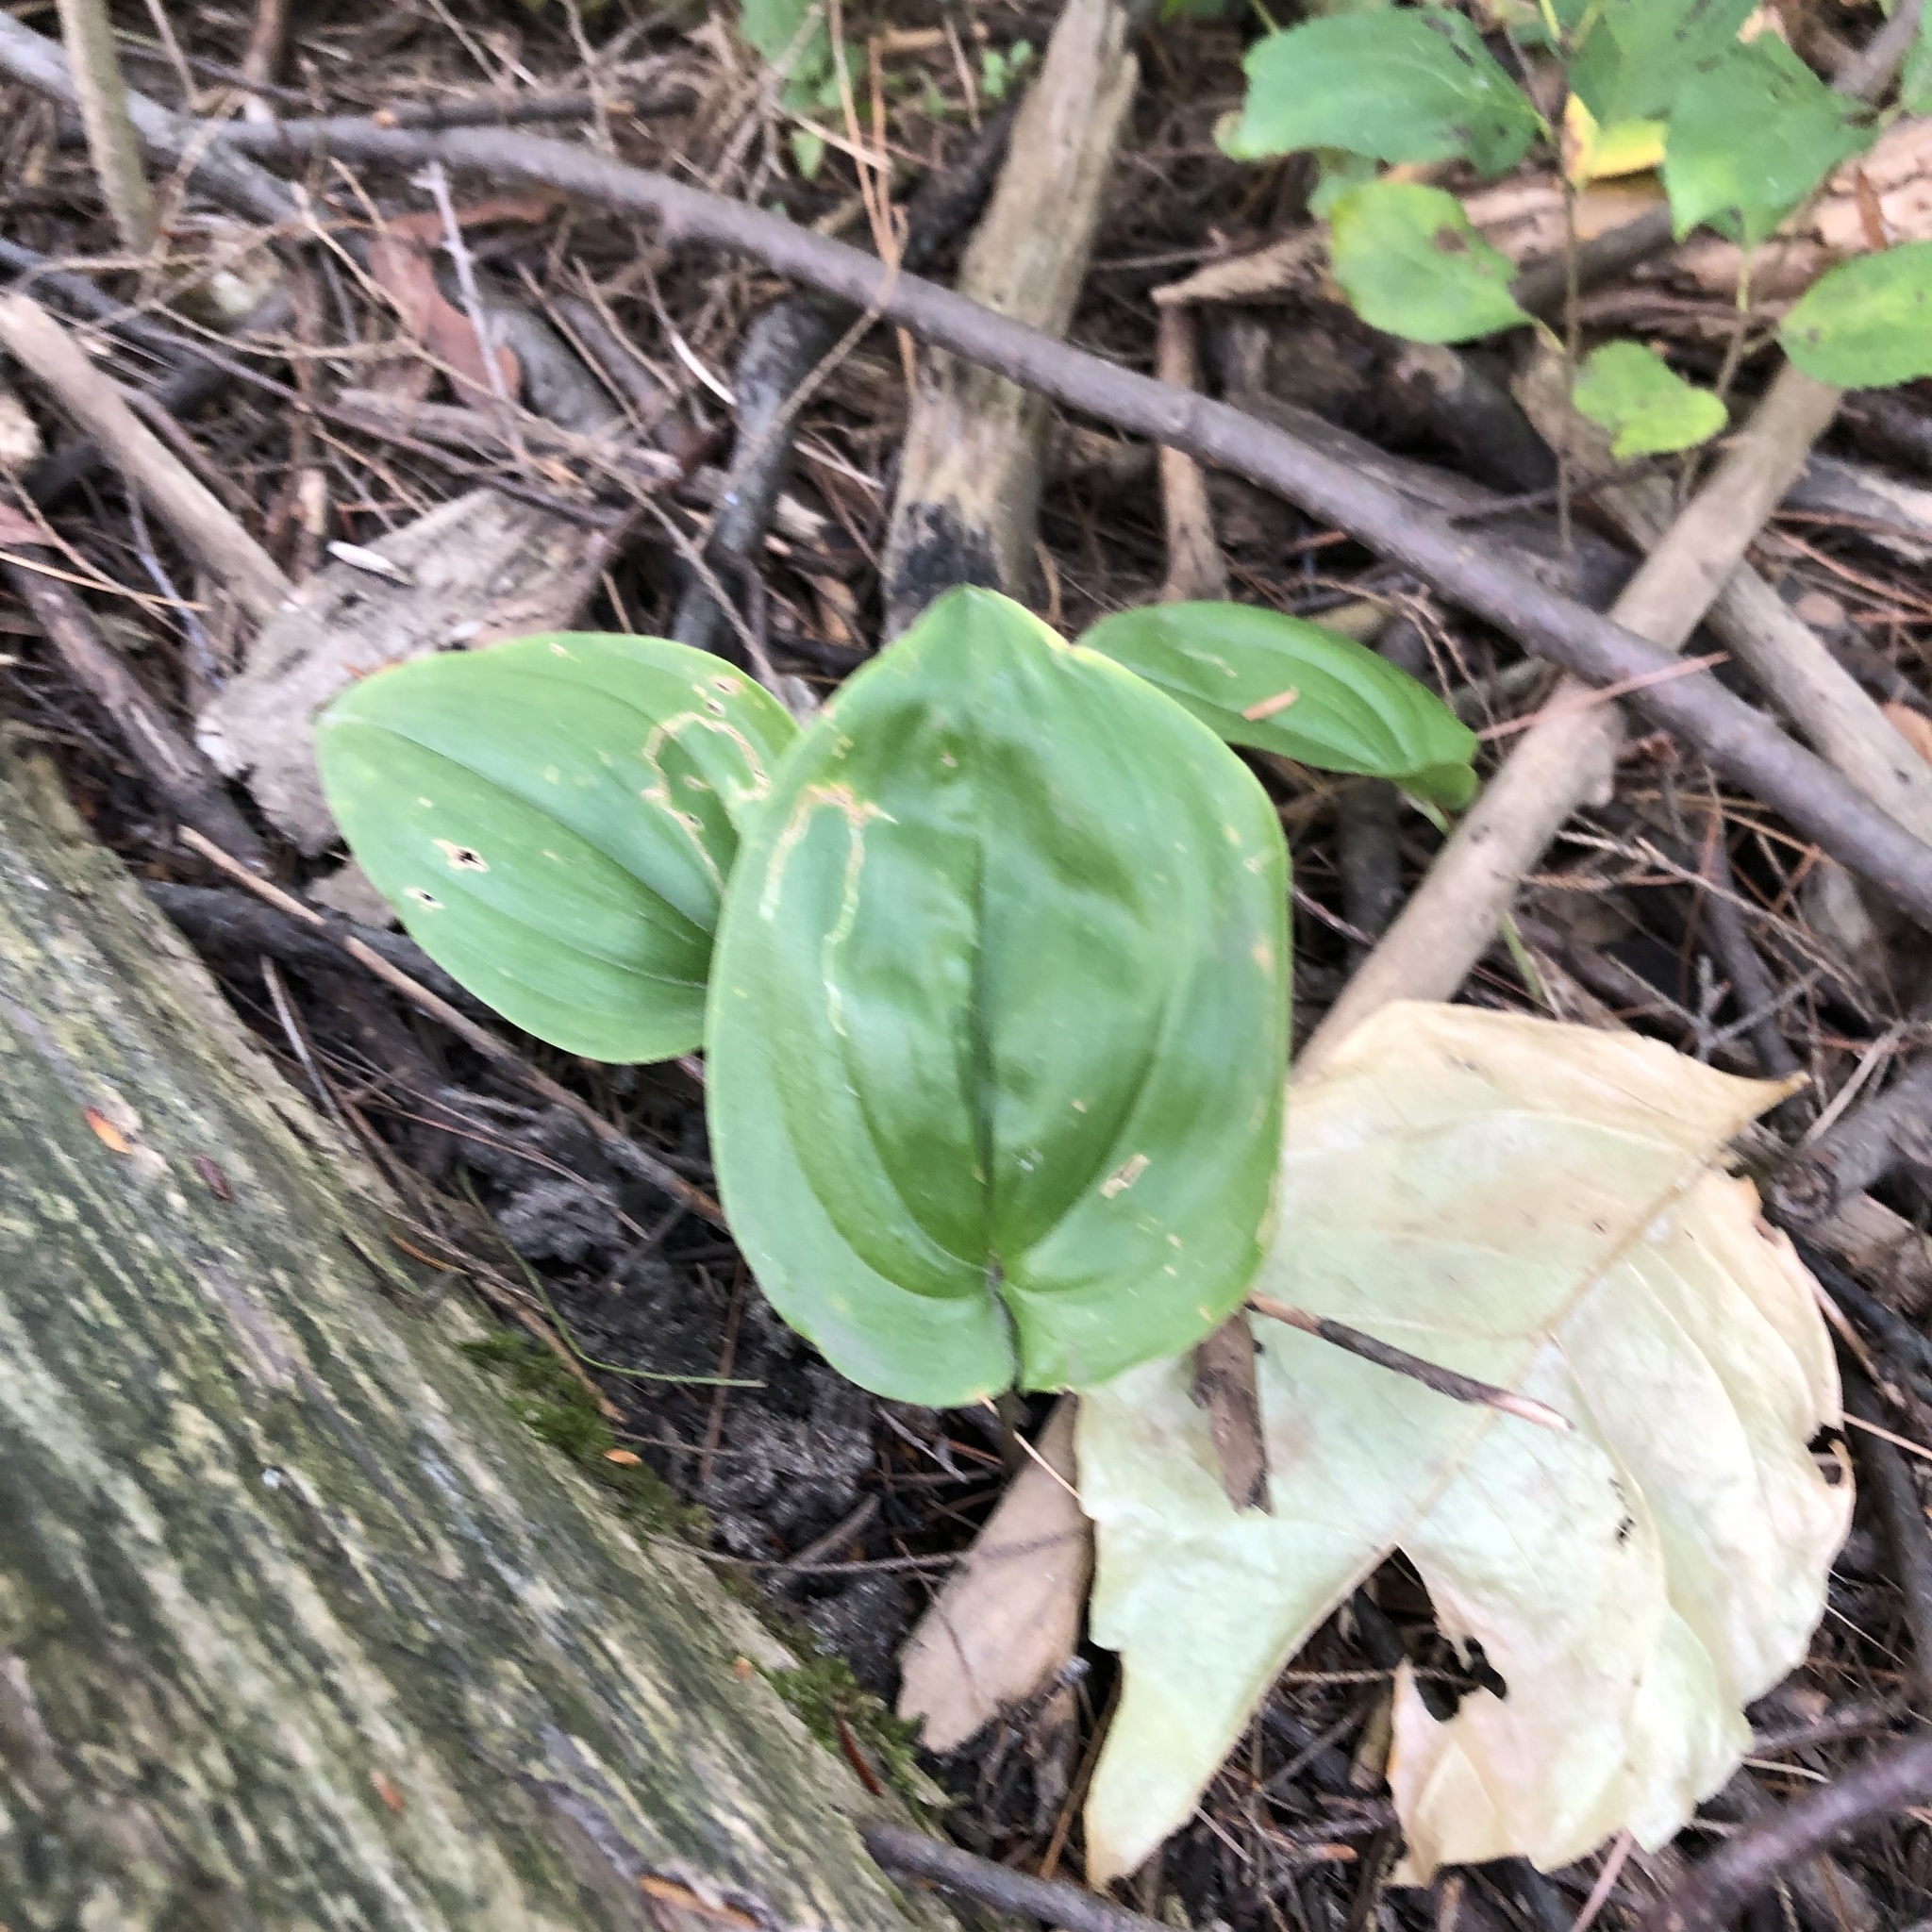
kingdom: Plantae
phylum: Tracheophyta
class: Liliopsida
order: Asparagales
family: Asparagaceae
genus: Maianthemum
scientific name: Maianthemum canadense
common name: False lily-of-the-valley
